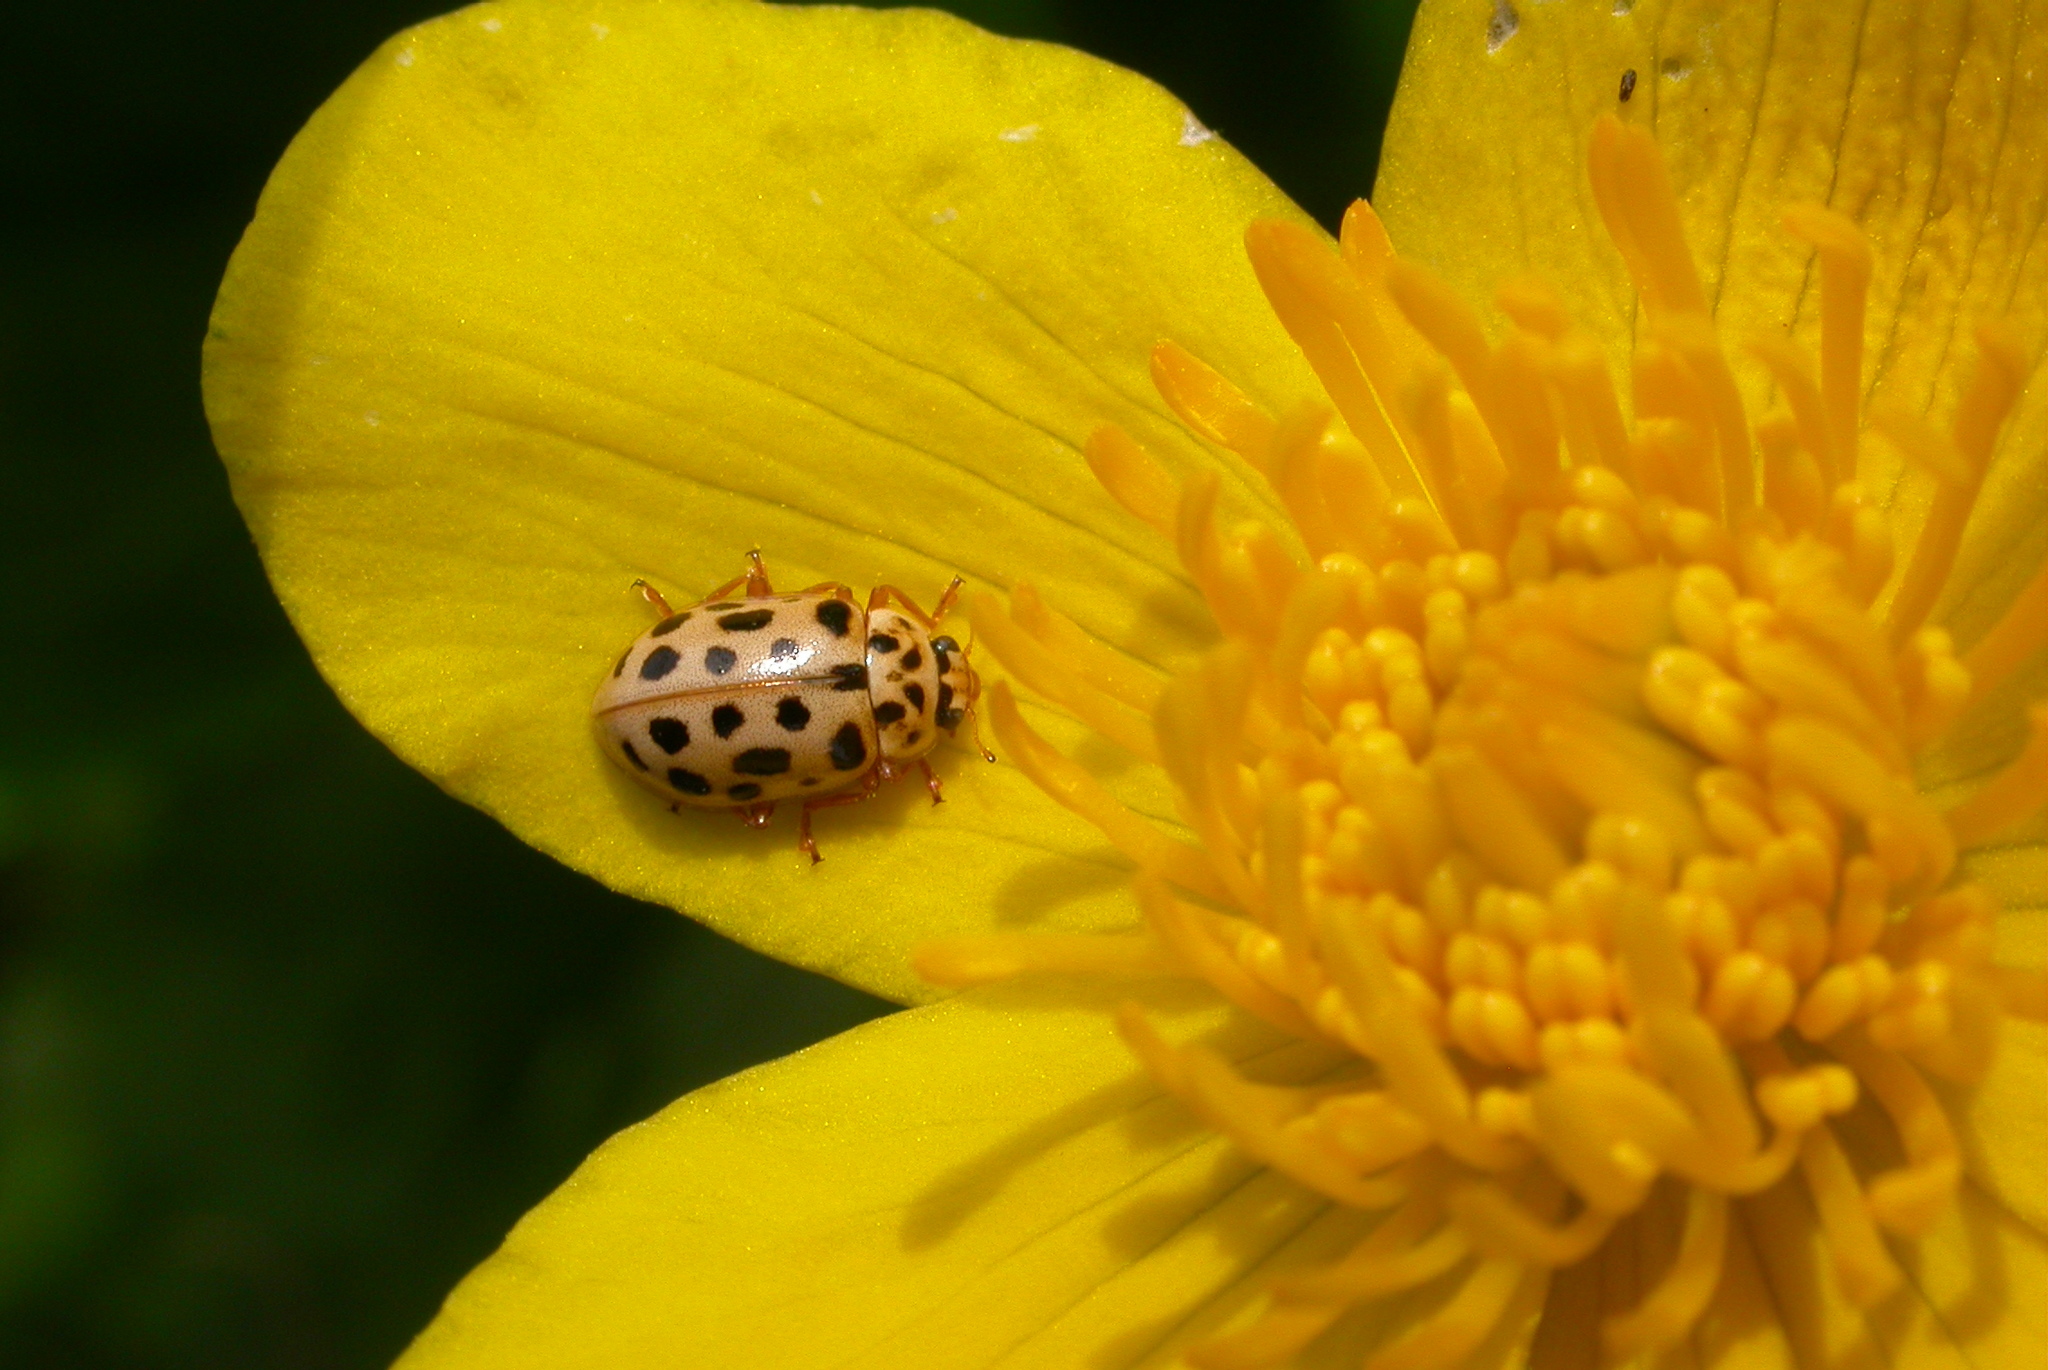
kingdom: Animalia
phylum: Arthropoda
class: Insecta
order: Coleoptera
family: Coccinellidae
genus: Anisosticta
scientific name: Anisosticta novemdecimpunctata
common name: Water ladybird
